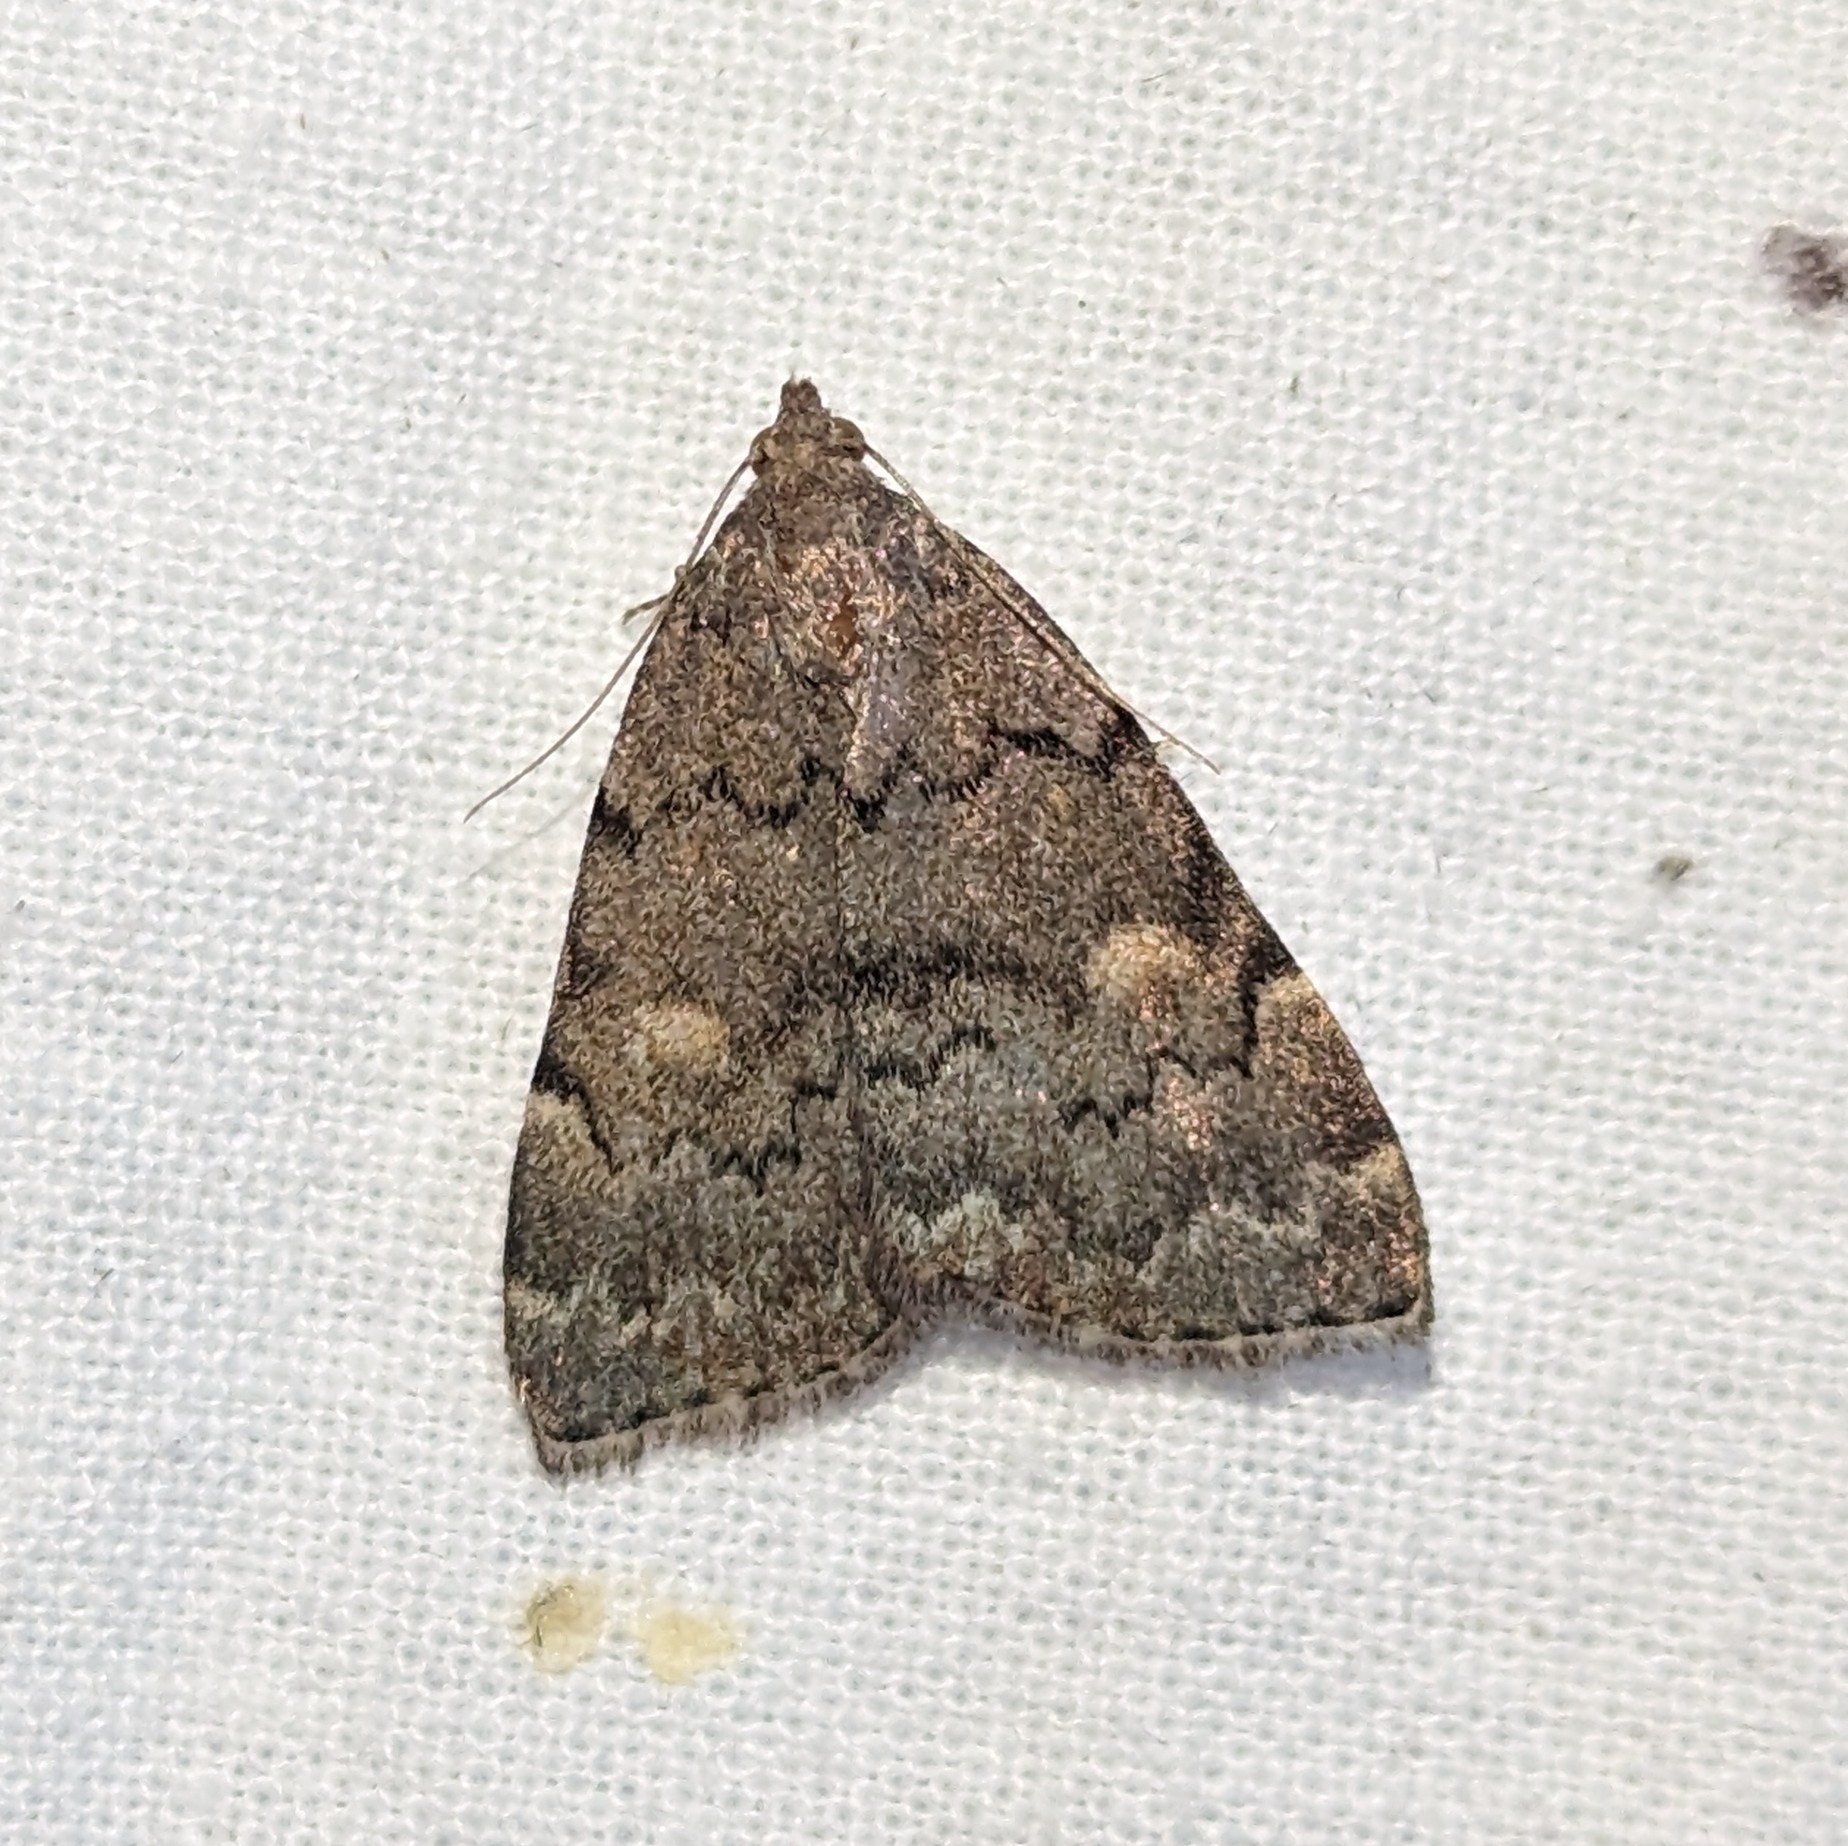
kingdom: Animalia
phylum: Arthropoda
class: Insecta
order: Lepidoptera
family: Erebidae
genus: Idia
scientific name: Idia aemula
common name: Common idia moth
